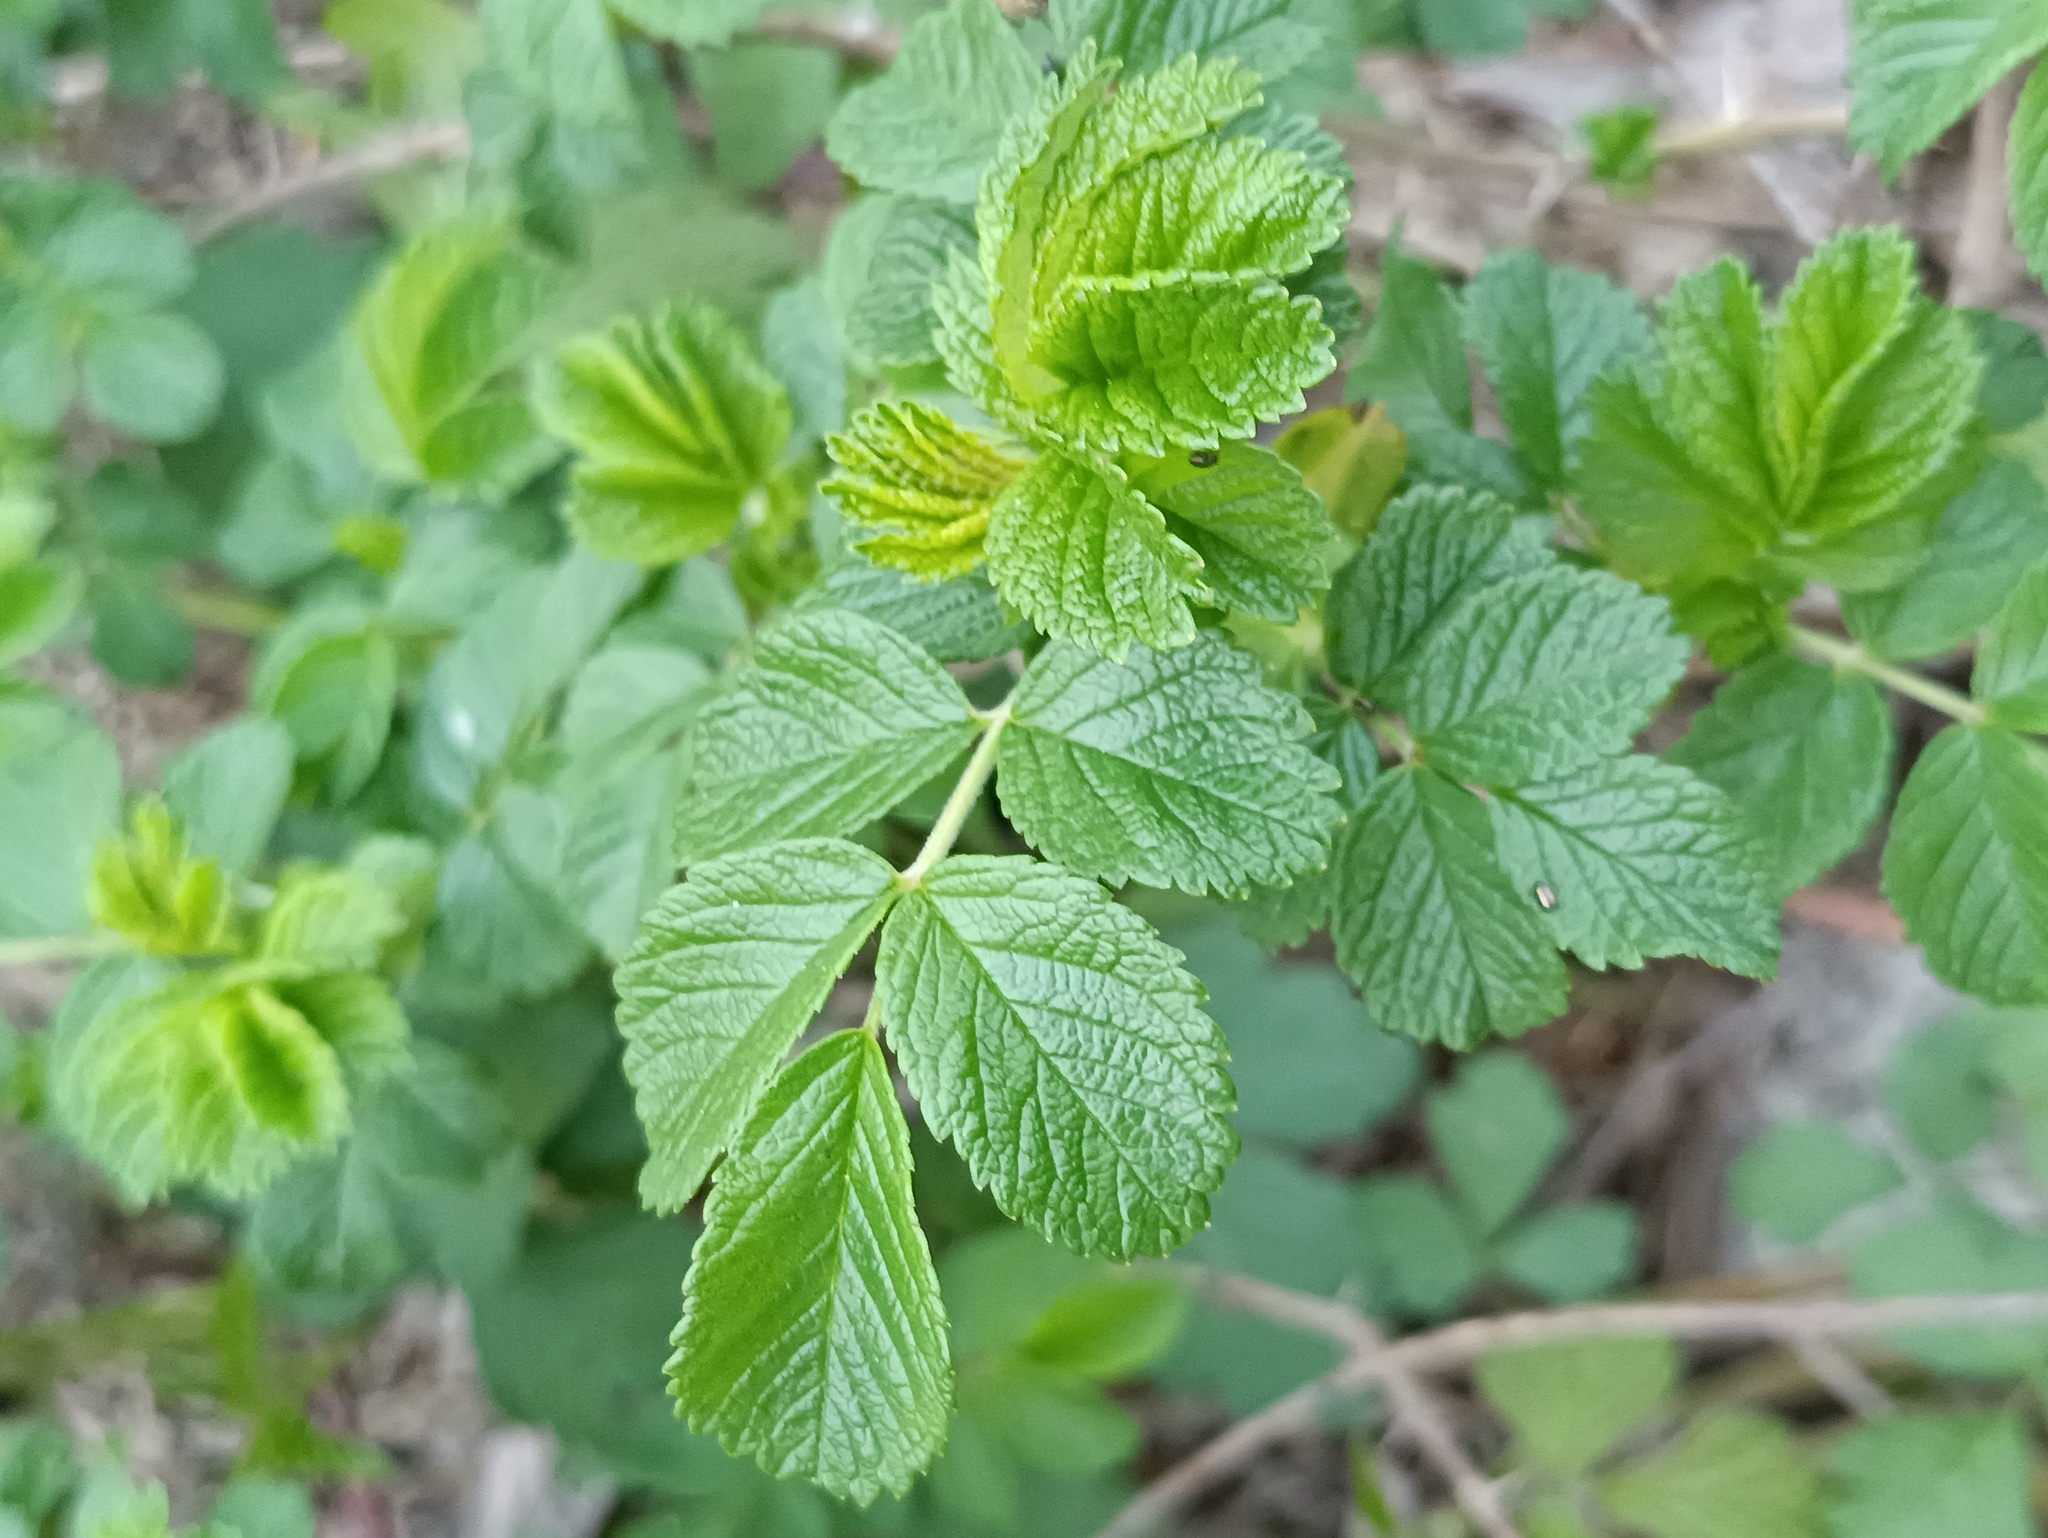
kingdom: Plantae
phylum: Tracheophyta
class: Magnoliopsida
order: Rosales
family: Rosaceae
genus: Rosa
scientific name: Rosa rugosa
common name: Japanese rose
